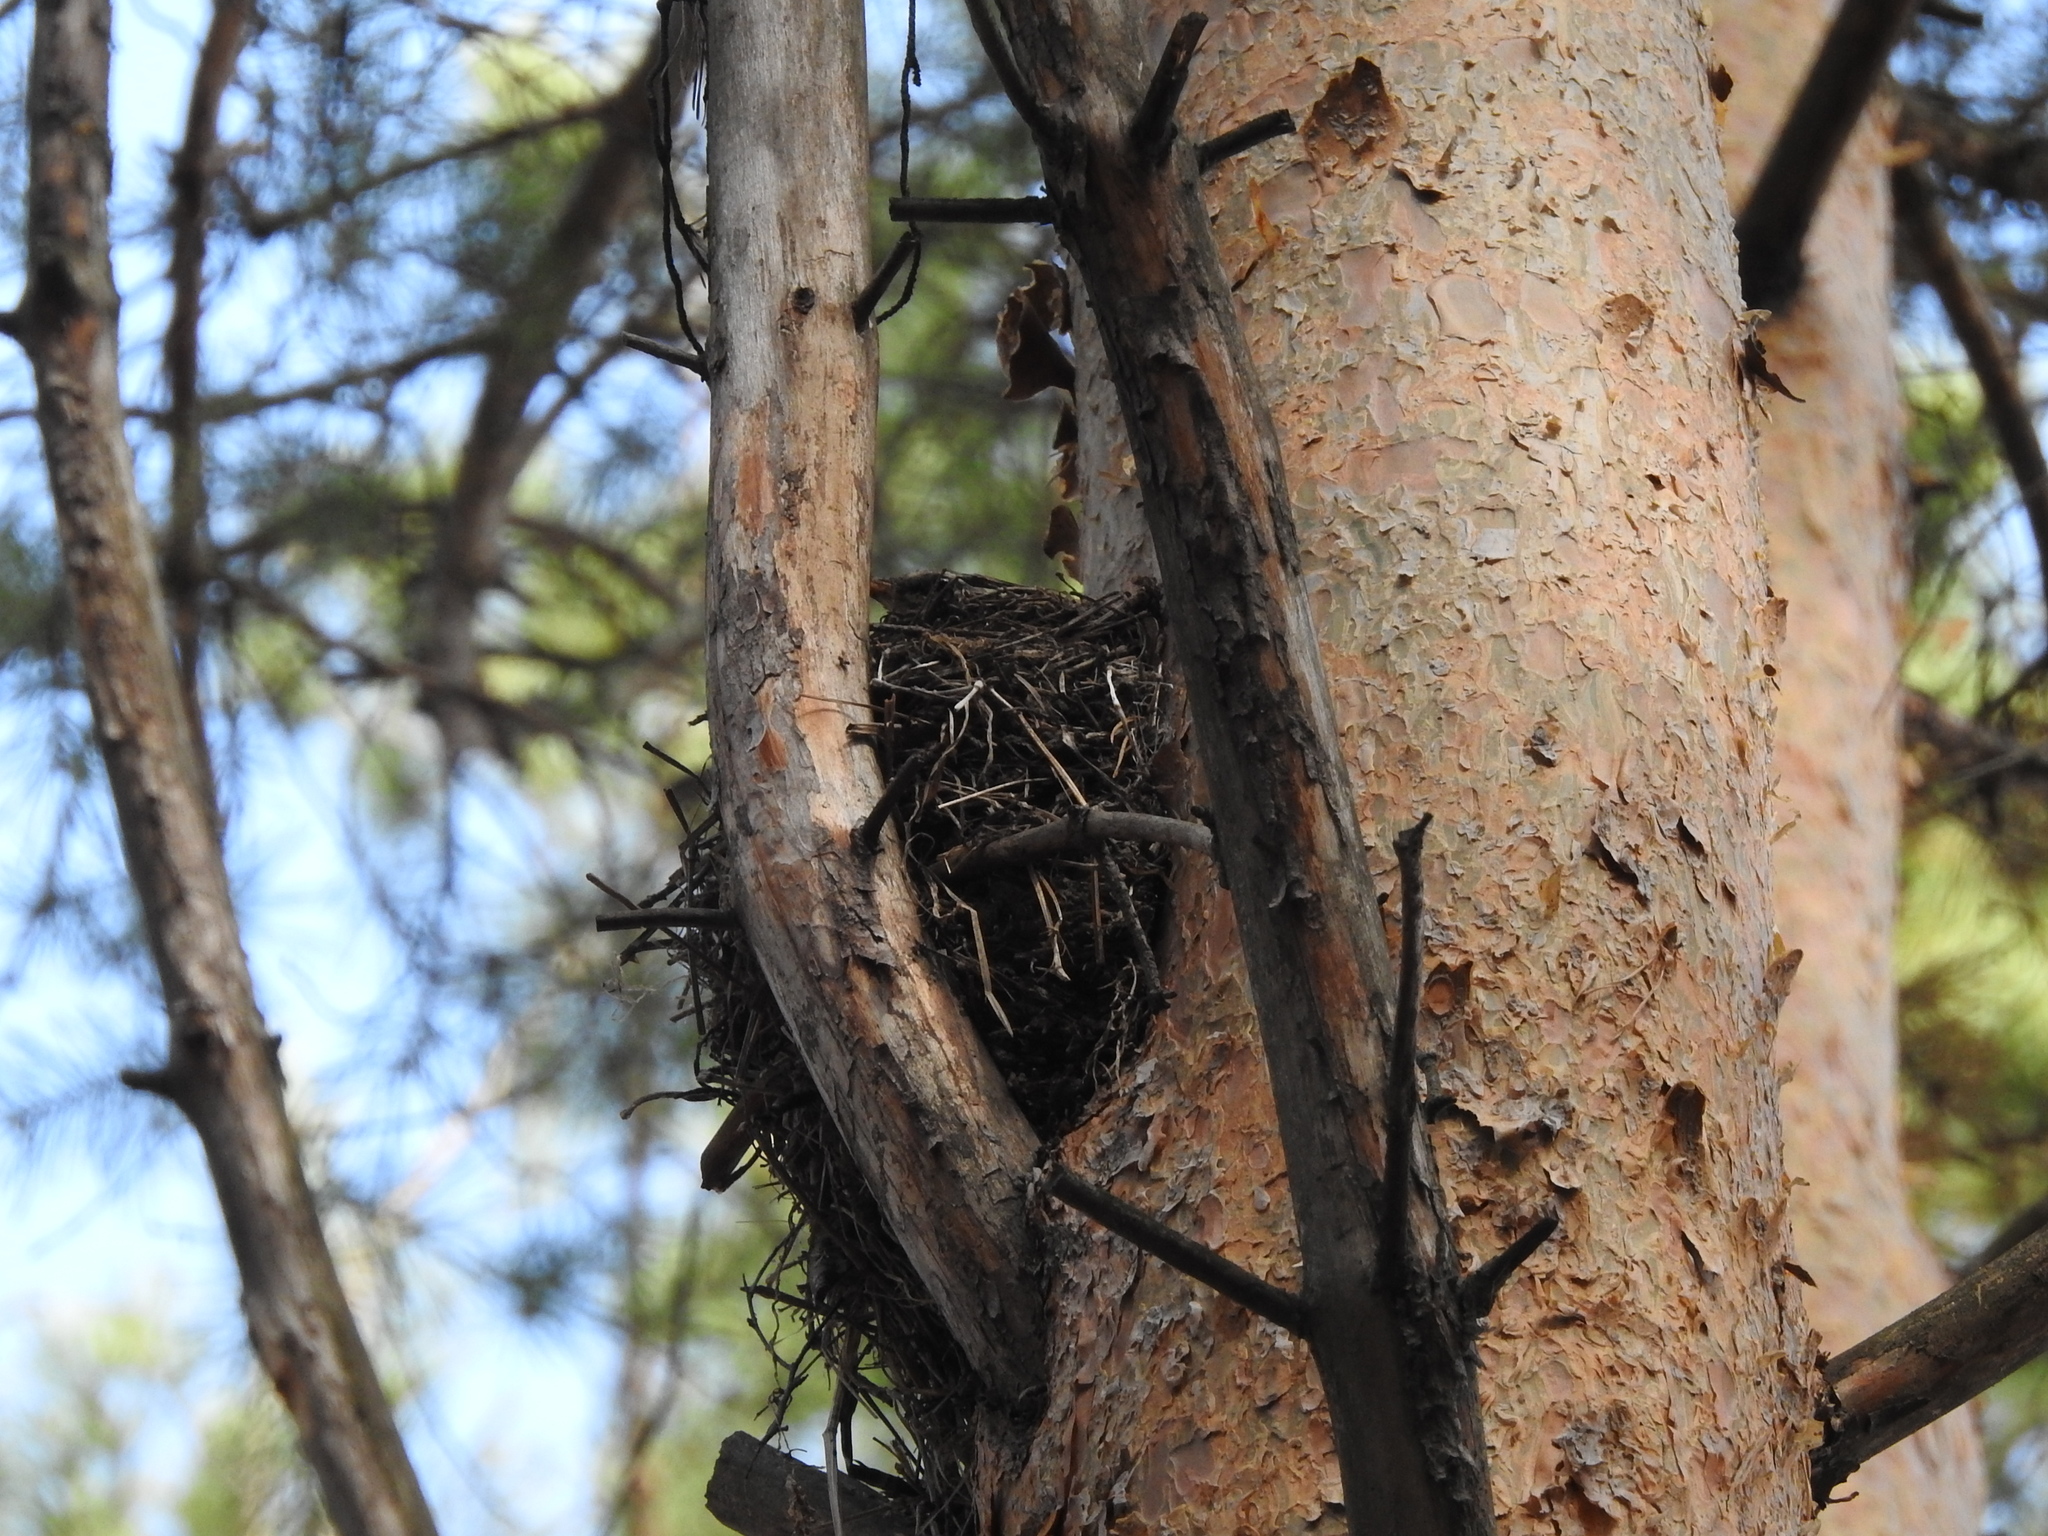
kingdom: Animalia
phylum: Chordata
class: Aves
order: Passeriformes
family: Turdidae
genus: Turdus
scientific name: Turdus pilaris
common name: Fieldfare
